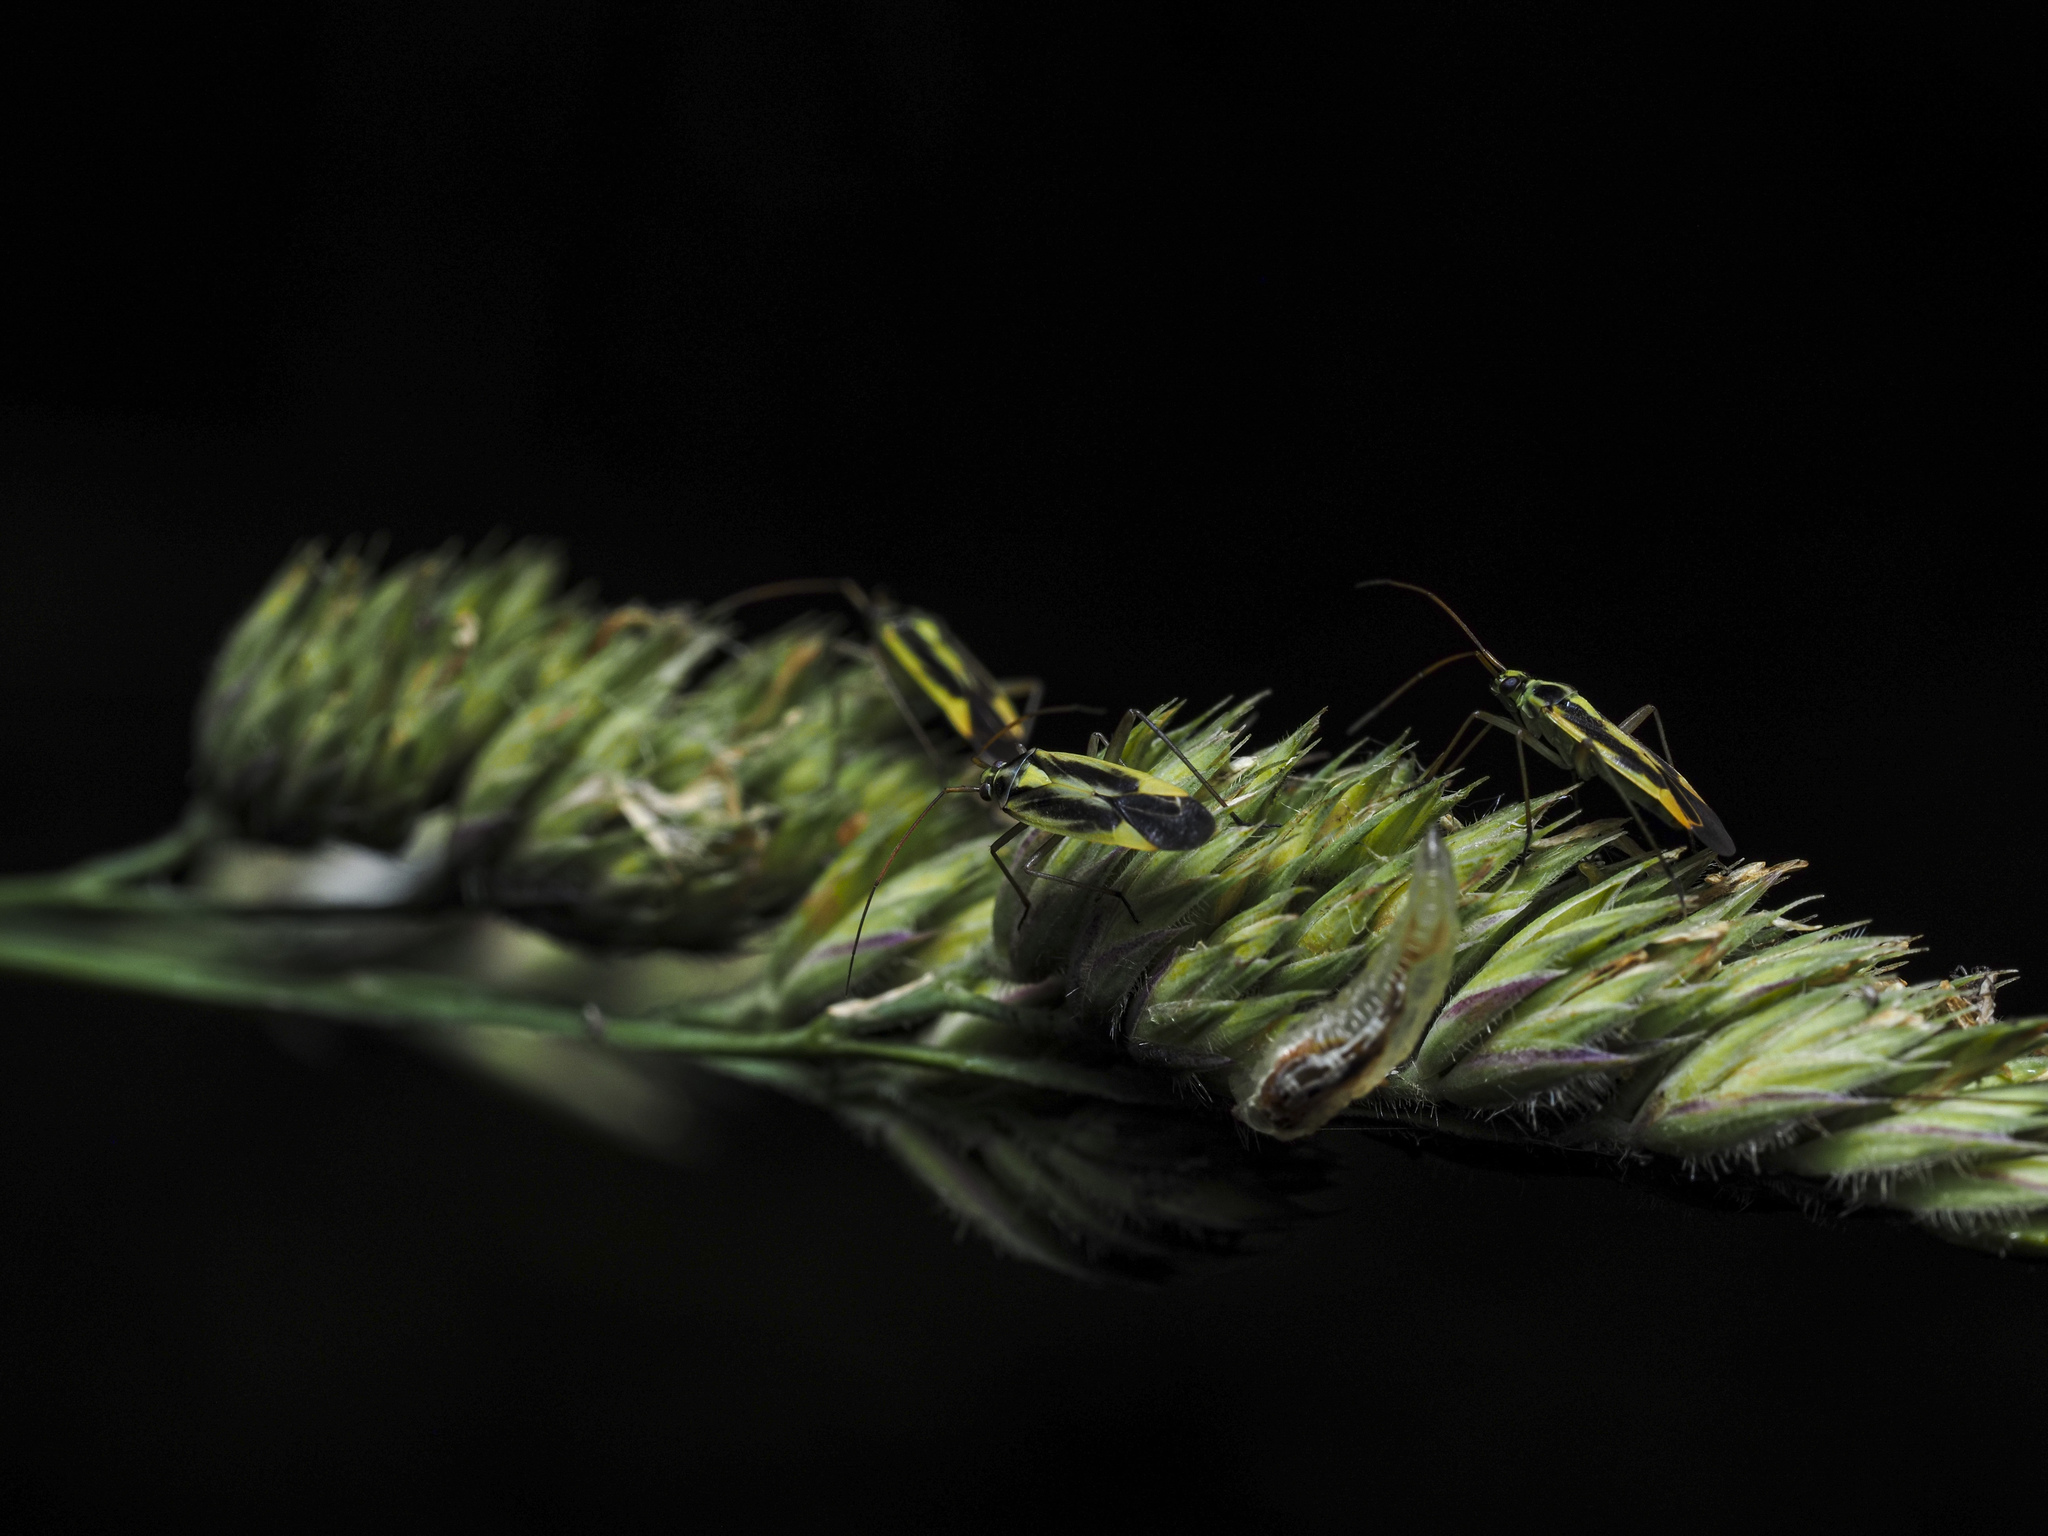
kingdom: Animalia
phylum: Arthropoda
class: Insecta
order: Hemiptera
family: Miridae
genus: Stenotus
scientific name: Stenotus binotatus
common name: Plant bug
